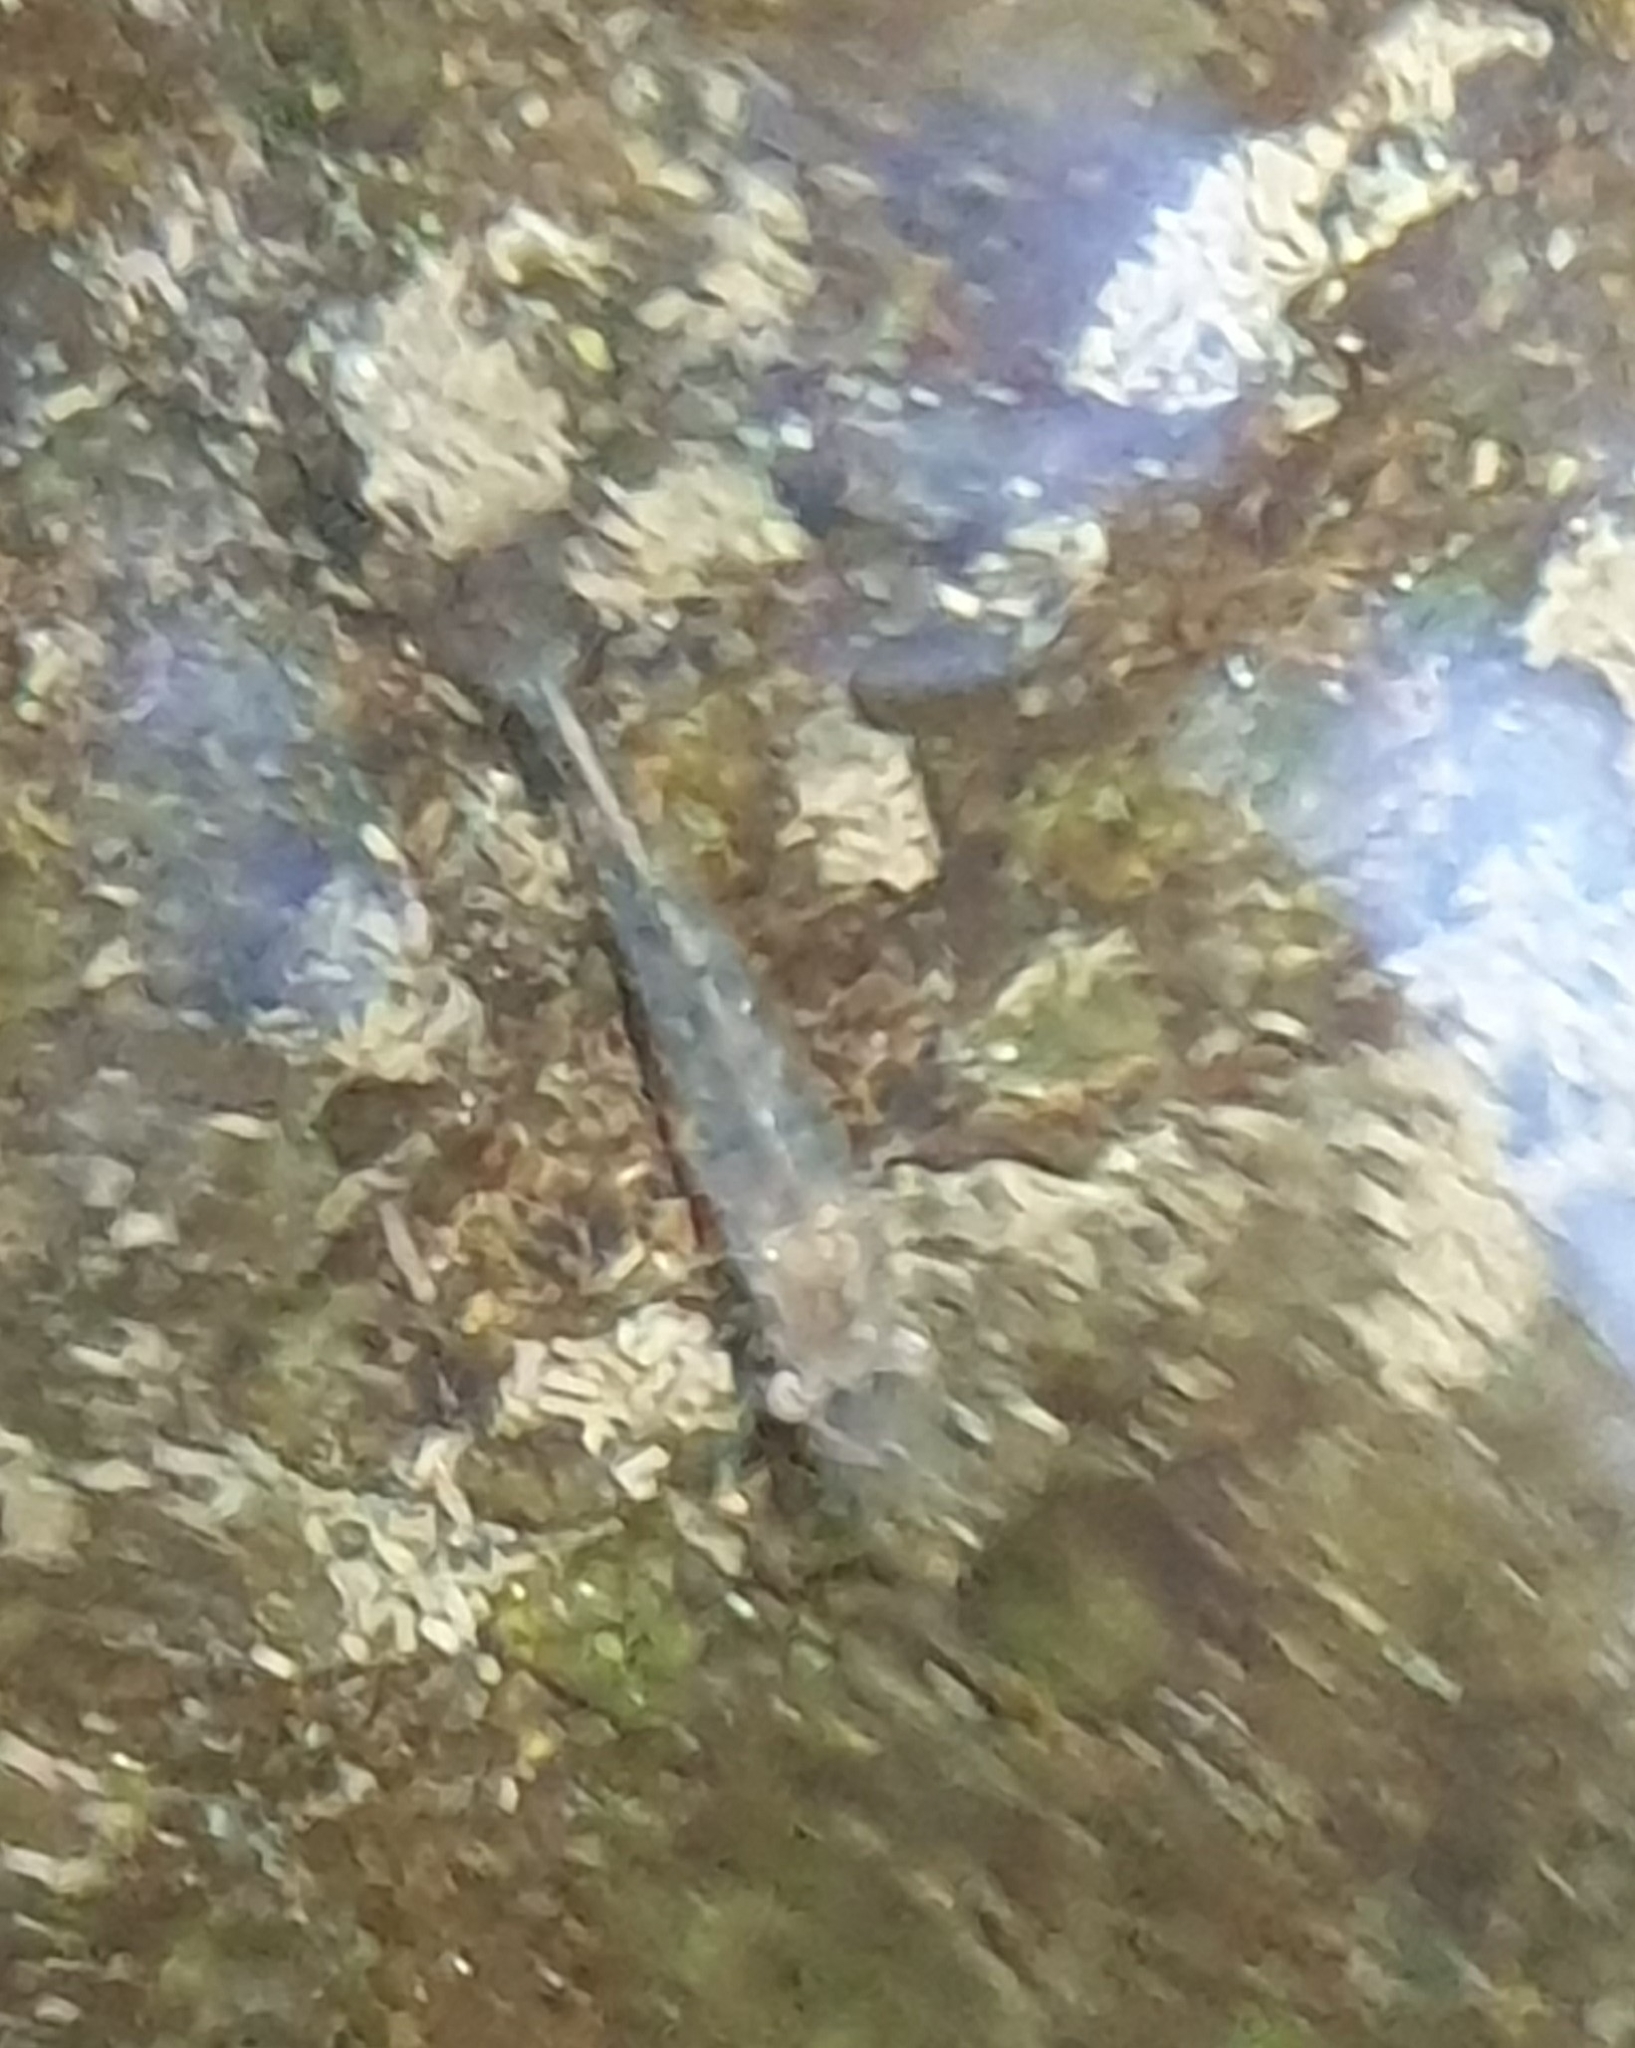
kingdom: Animalia
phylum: Arthropoda
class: Malacostraca
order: Decapoda
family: Atyidae
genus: Paratya
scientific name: Paratya curvirostris
